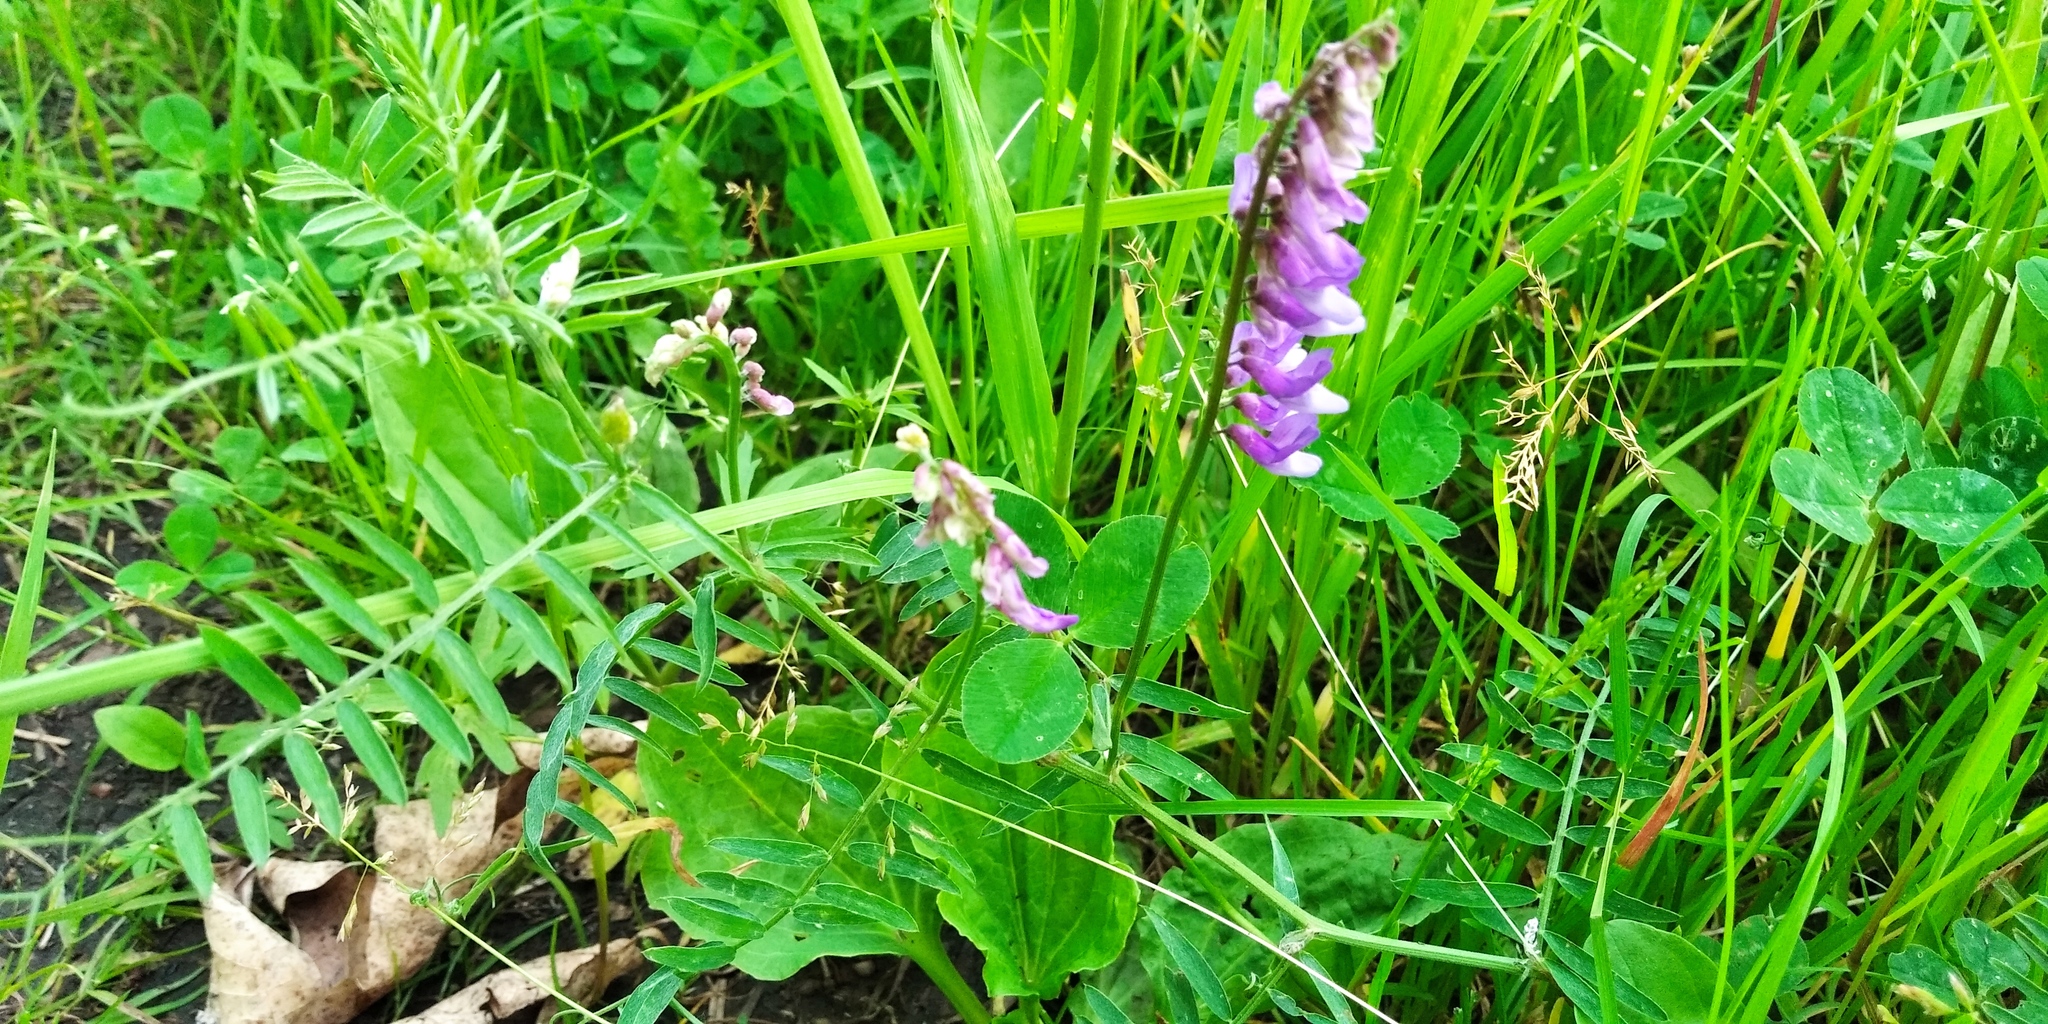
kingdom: Plantae
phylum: Tracheophyta
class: Magnoliopsida
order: Fabales
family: Fabaceae
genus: Vicia
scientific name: Vicia villosa
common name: Fodder vetch
